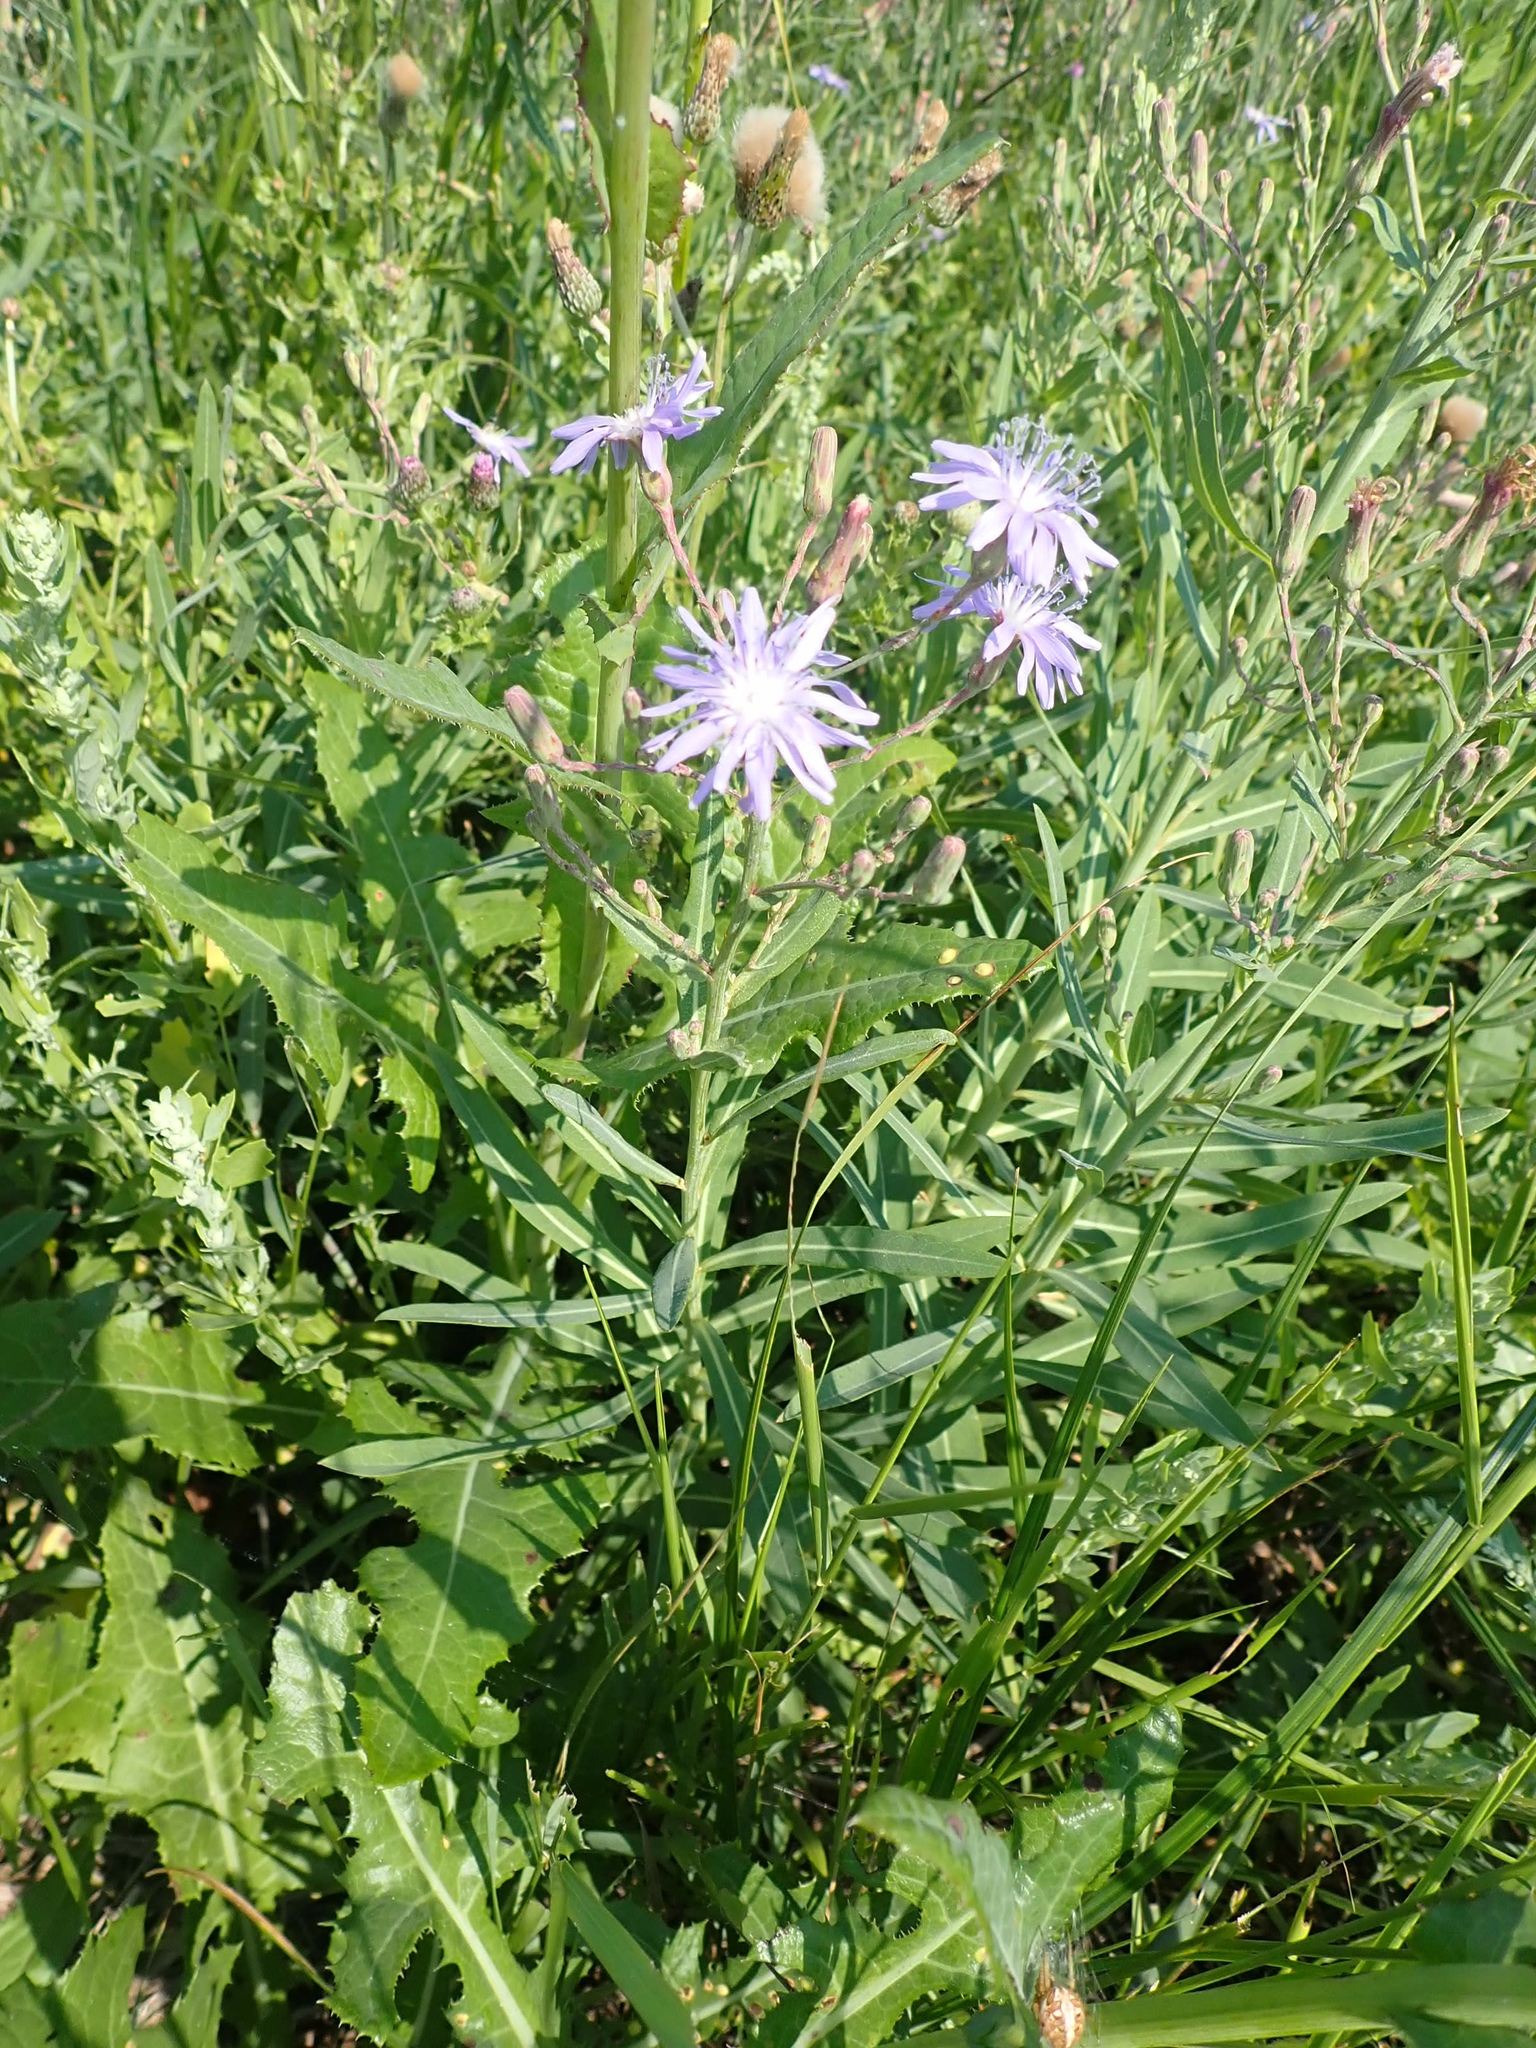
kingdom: Plantae
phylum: Tracheophyta
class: Magnoliopsida
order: Asterales
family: Asteraceae
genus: Lactuca
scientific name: Lactuca pulchella
